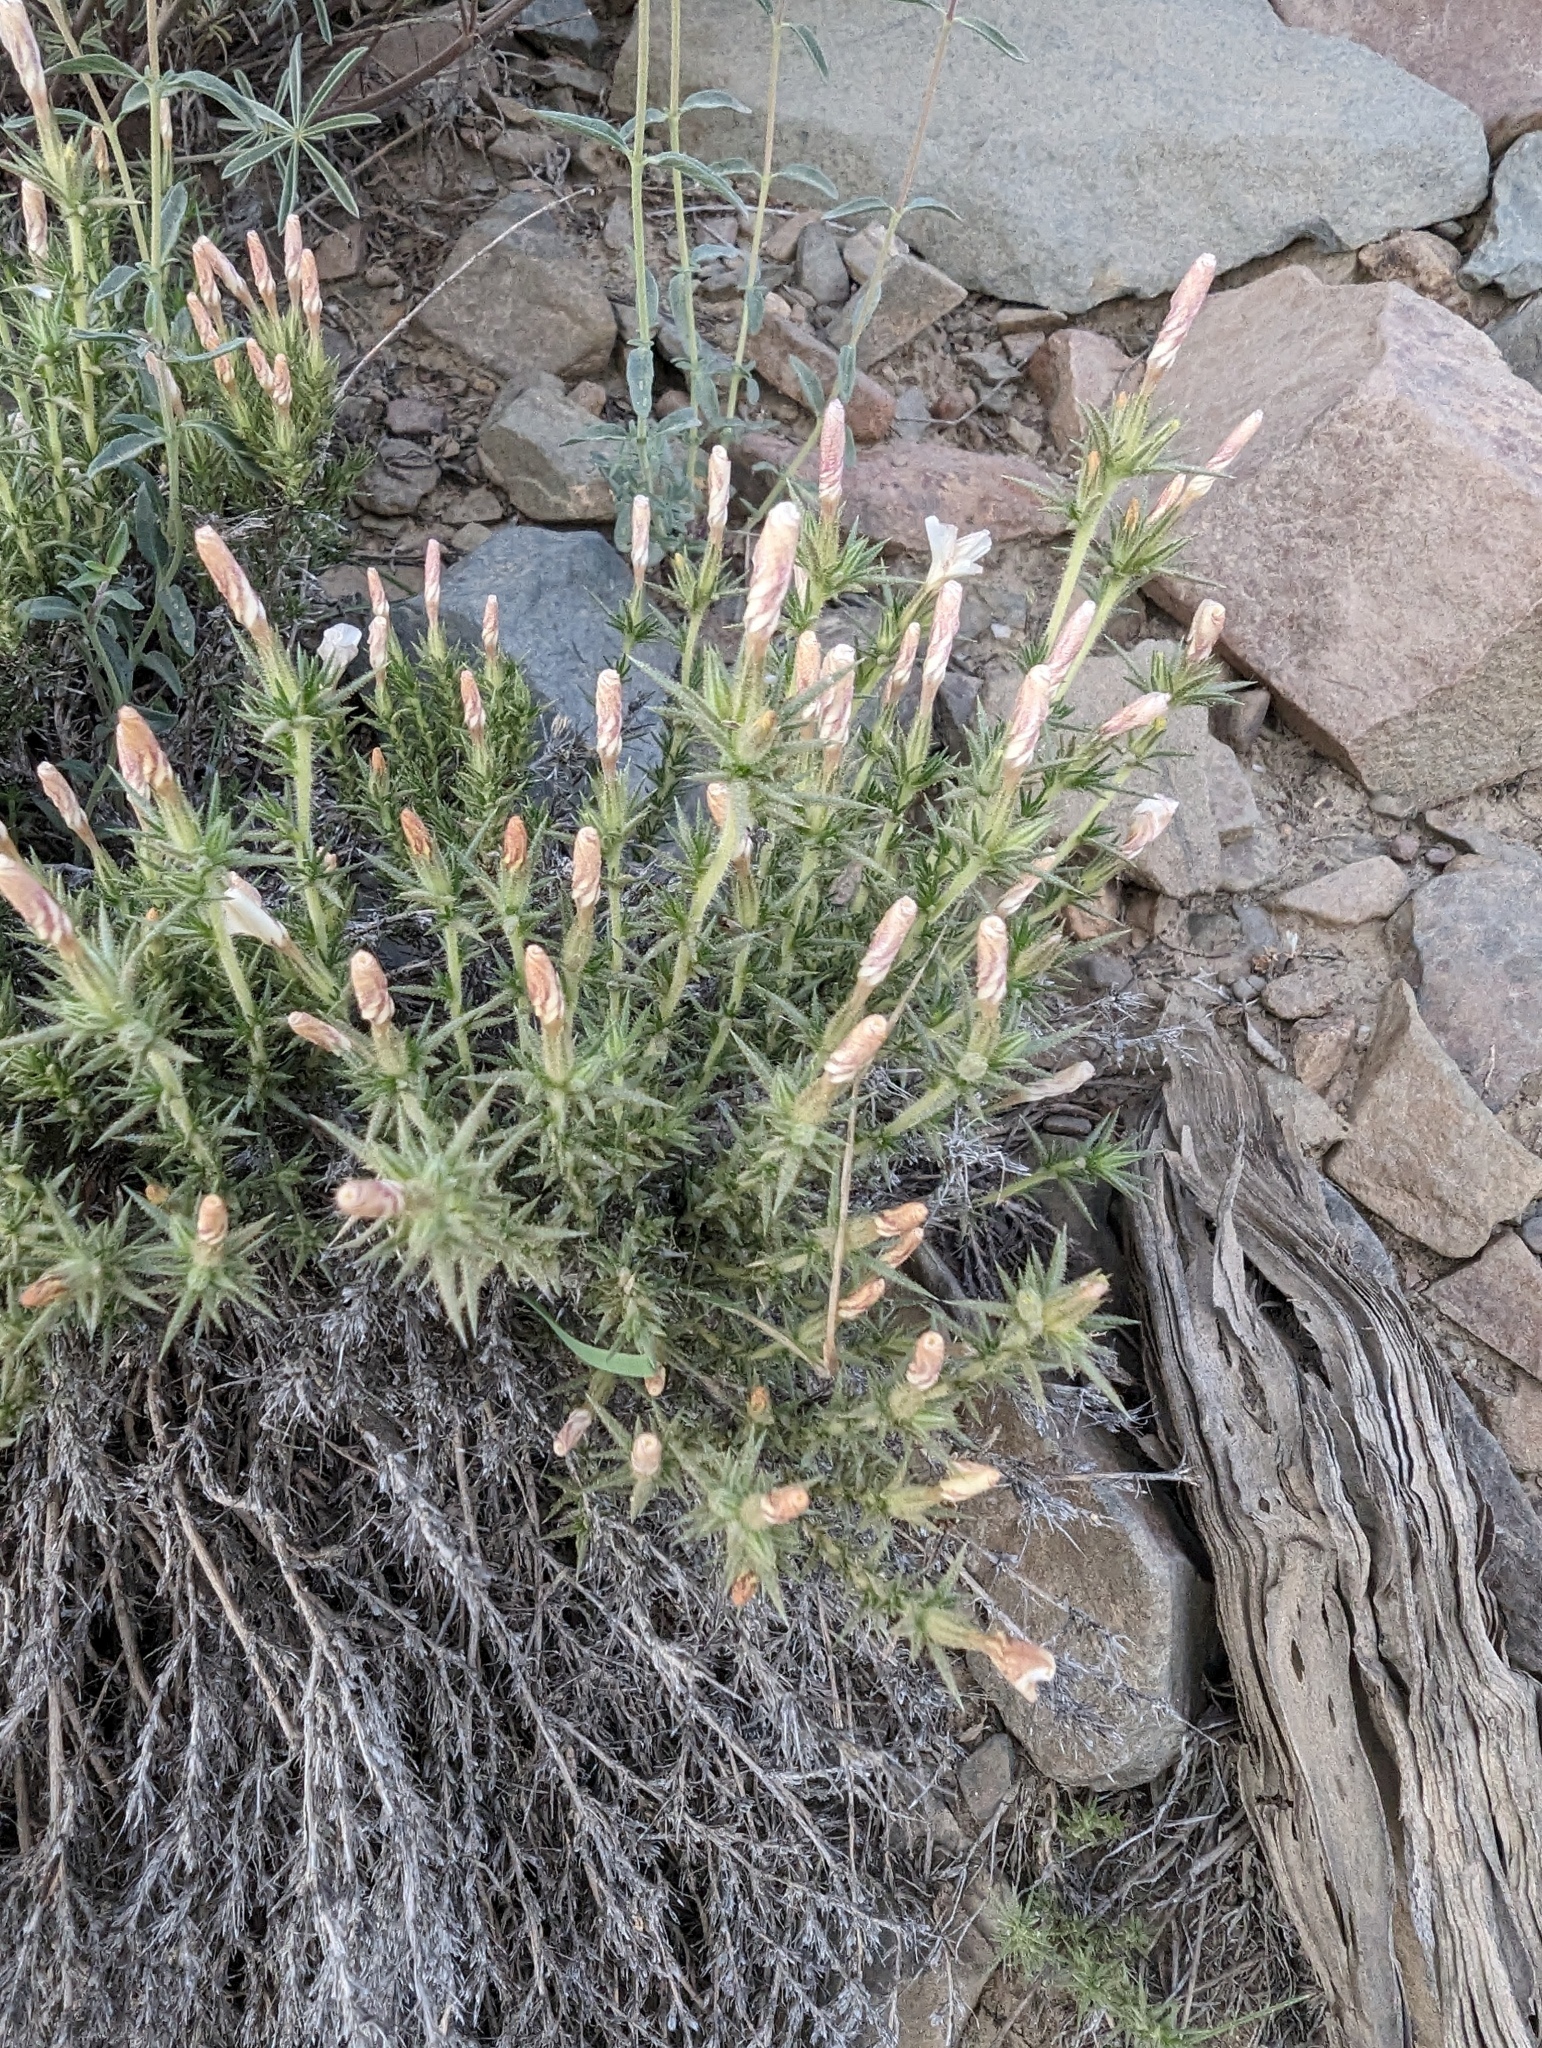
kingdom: Plantae
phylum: Tracheophyta
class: Magnoliopsida
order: Ericales
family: Polemoniaceae
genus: Linanthus
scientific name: Linanthus pungens
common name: Granite prickly phlox
